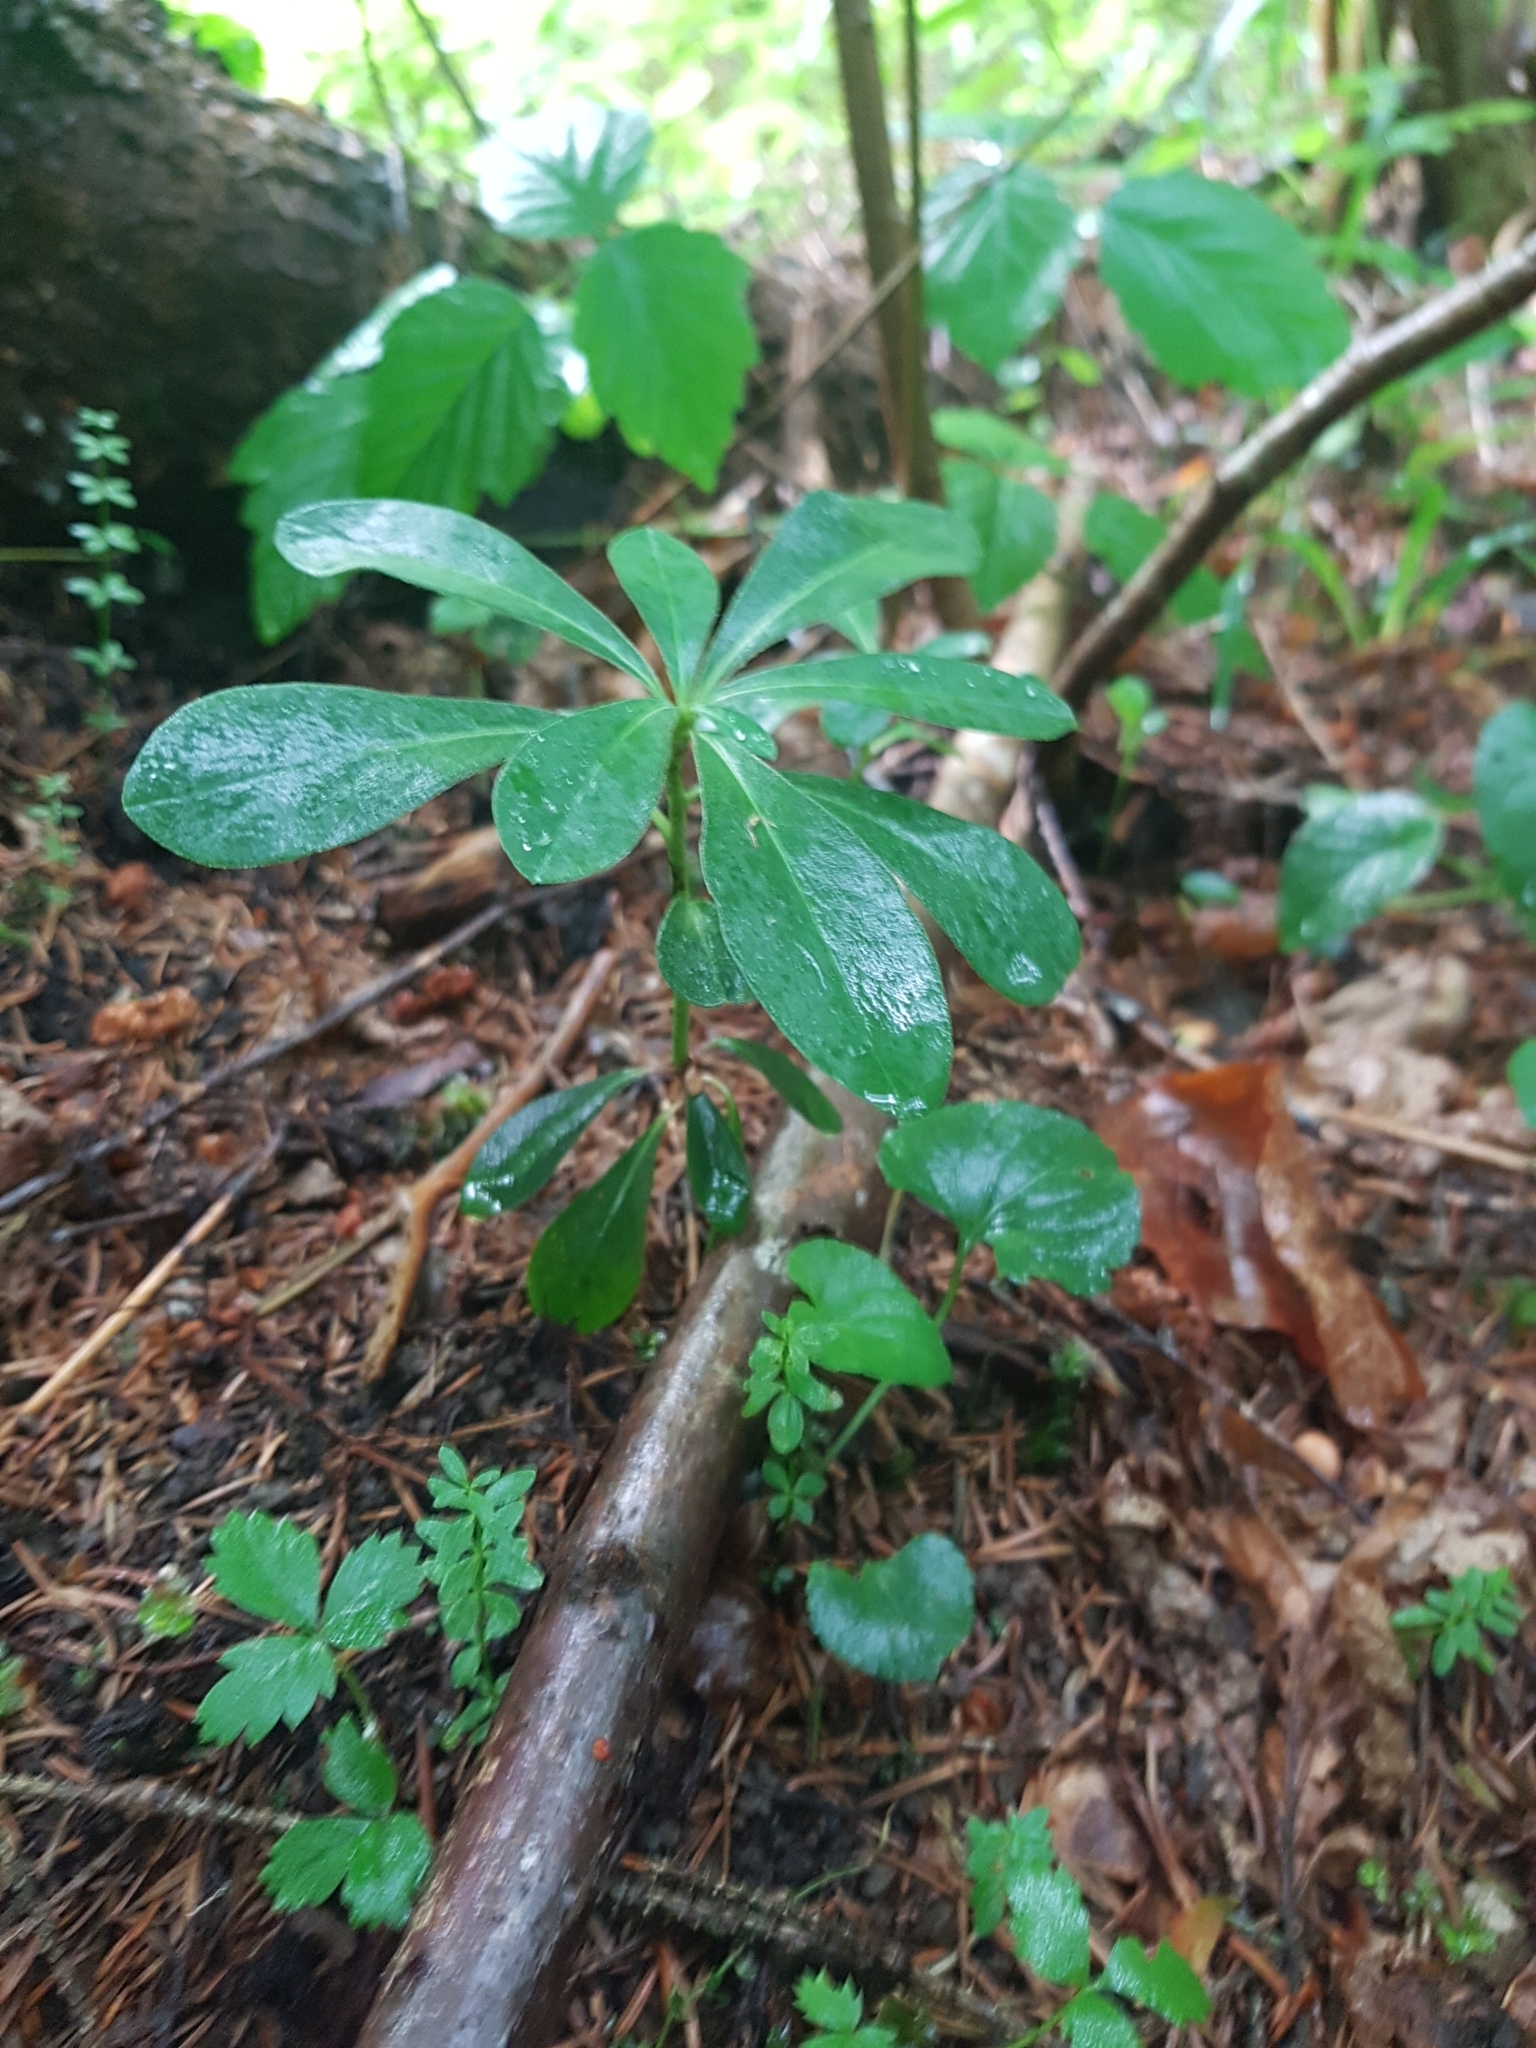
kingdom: Plantae
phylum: Tracheophyta
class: Magnoliopsida
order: Malvales
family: Thymelaeaceae
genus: Daphne
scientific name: Daphne mezereum
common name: Mezereon
